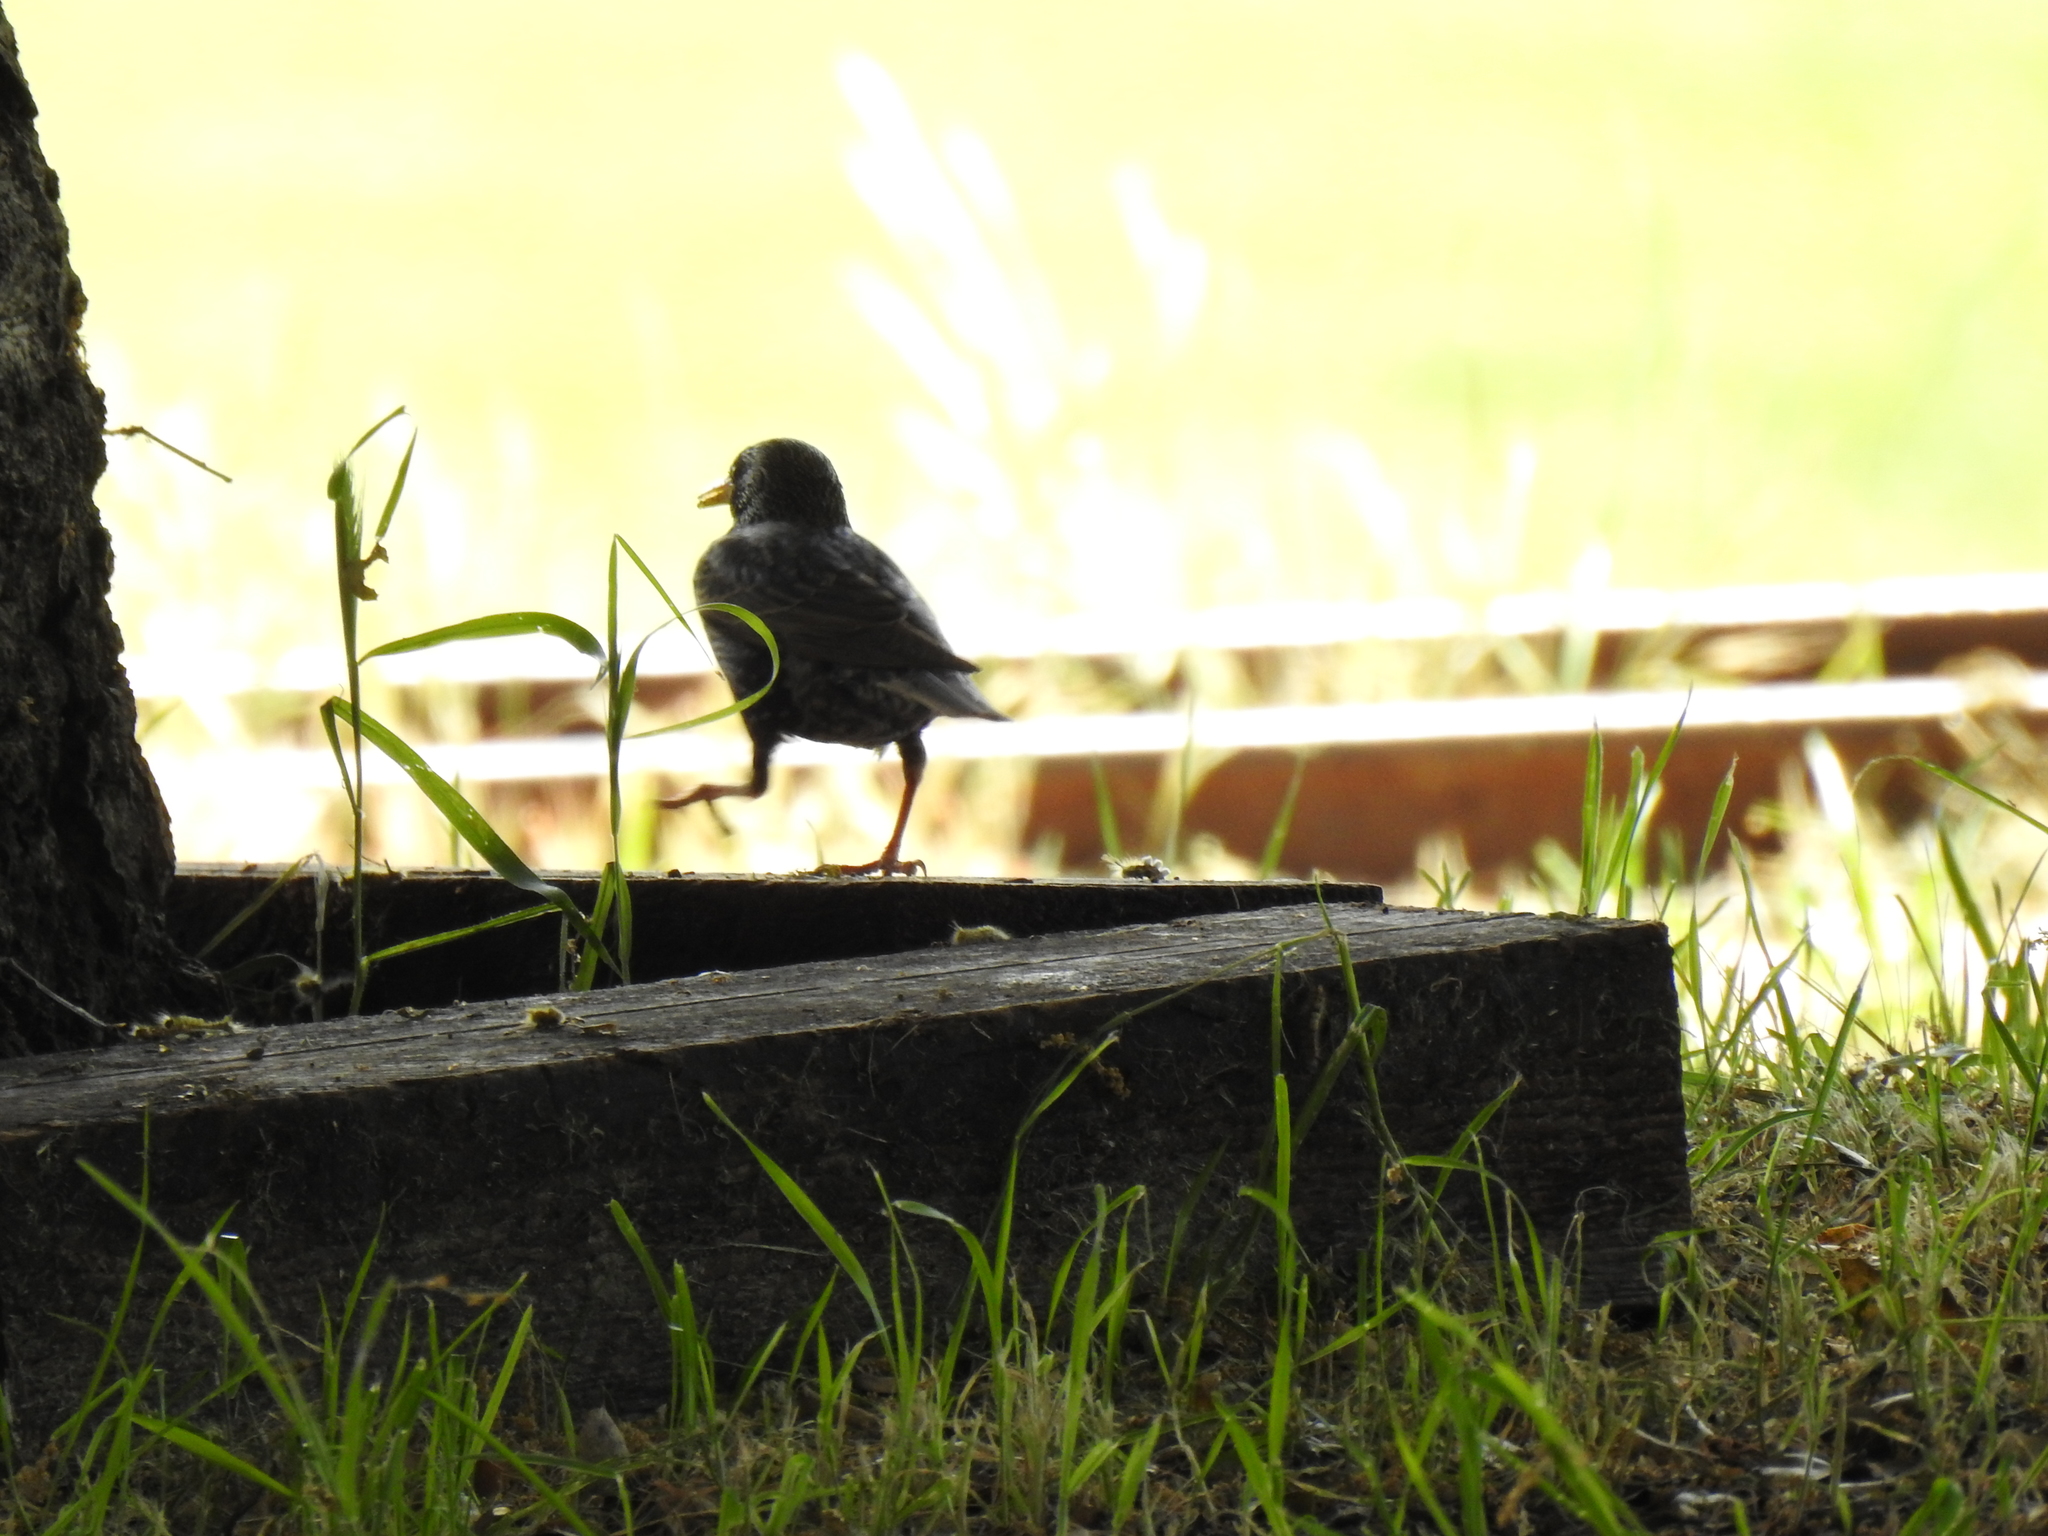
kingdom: Animalia
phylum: Chordata
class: Aves
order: Passeriformes
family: Sturnidae
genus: Sturnus
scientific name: Sturnus vulgaris
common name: Common starling
